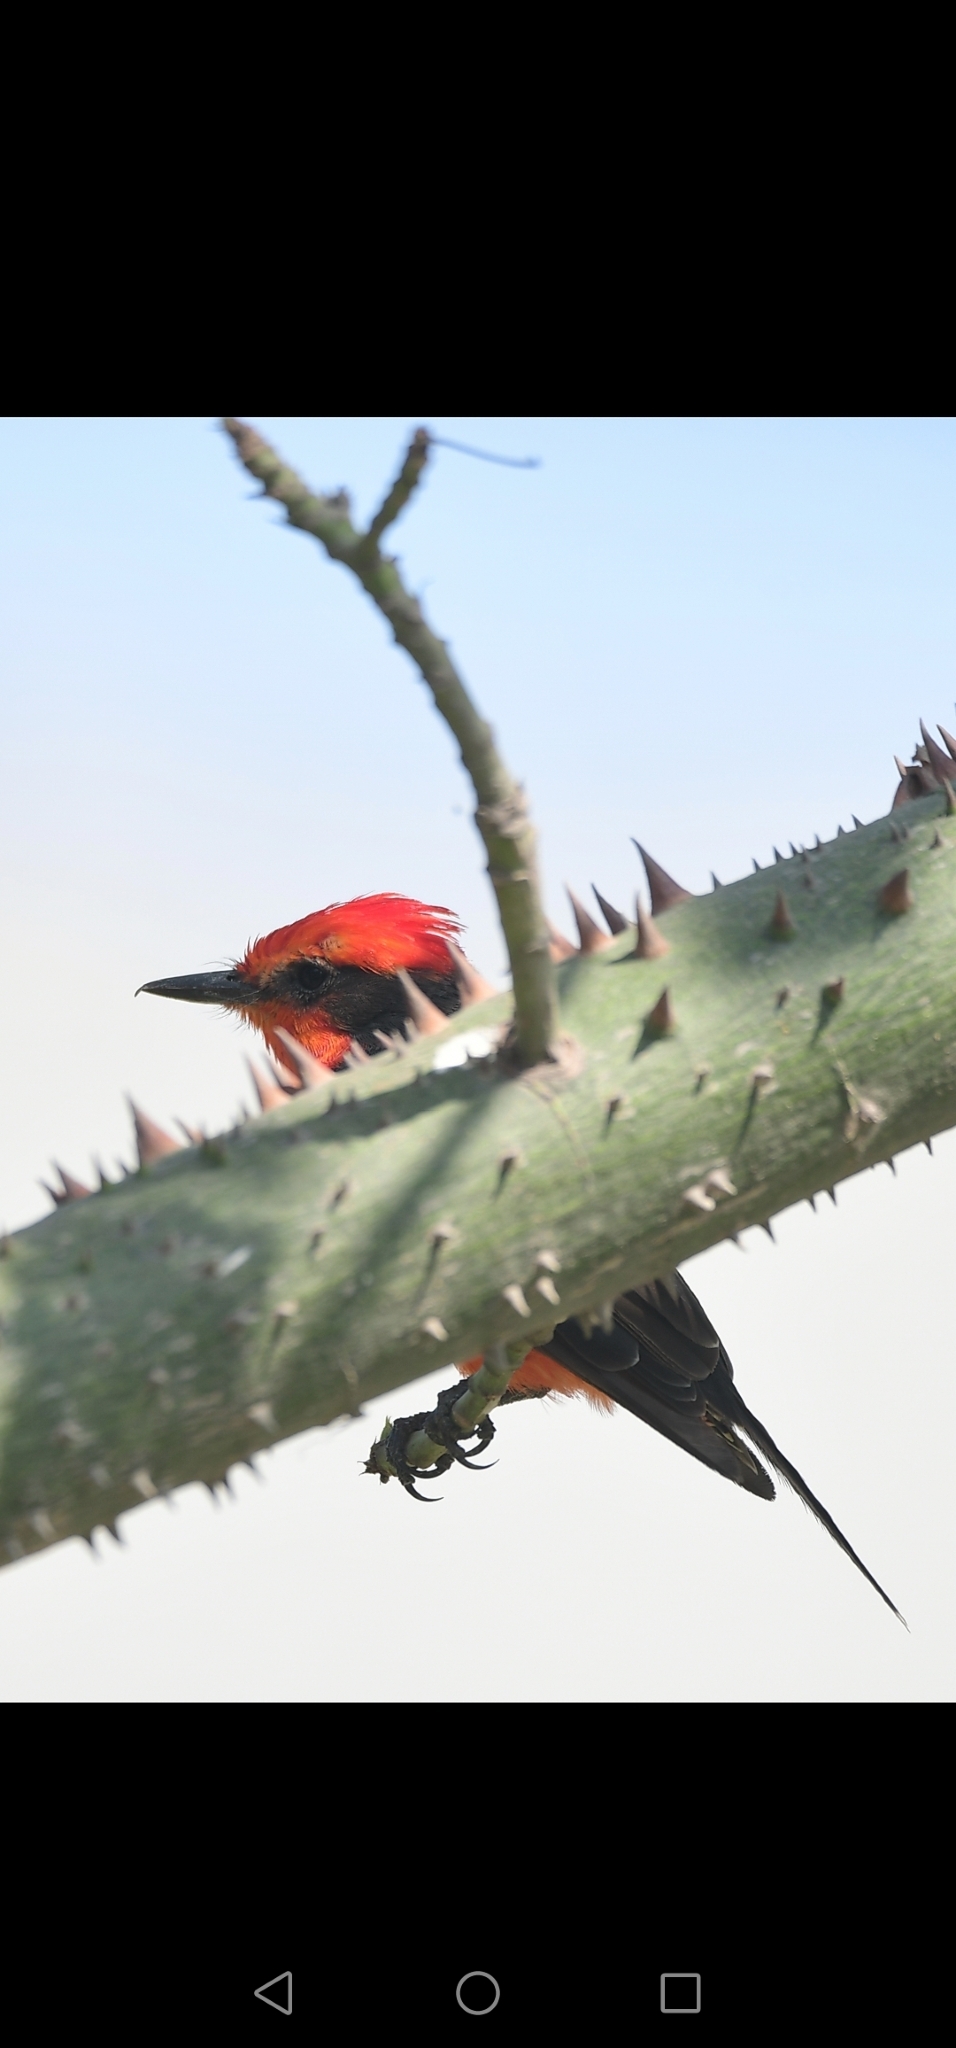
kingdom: Animalia
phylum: Chordata
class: Aves
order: Passeriformes
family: Tyrannidae
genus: Pyrocephalus
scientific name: Pyrocephalus rubinus
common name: Vermilion flycatcher
